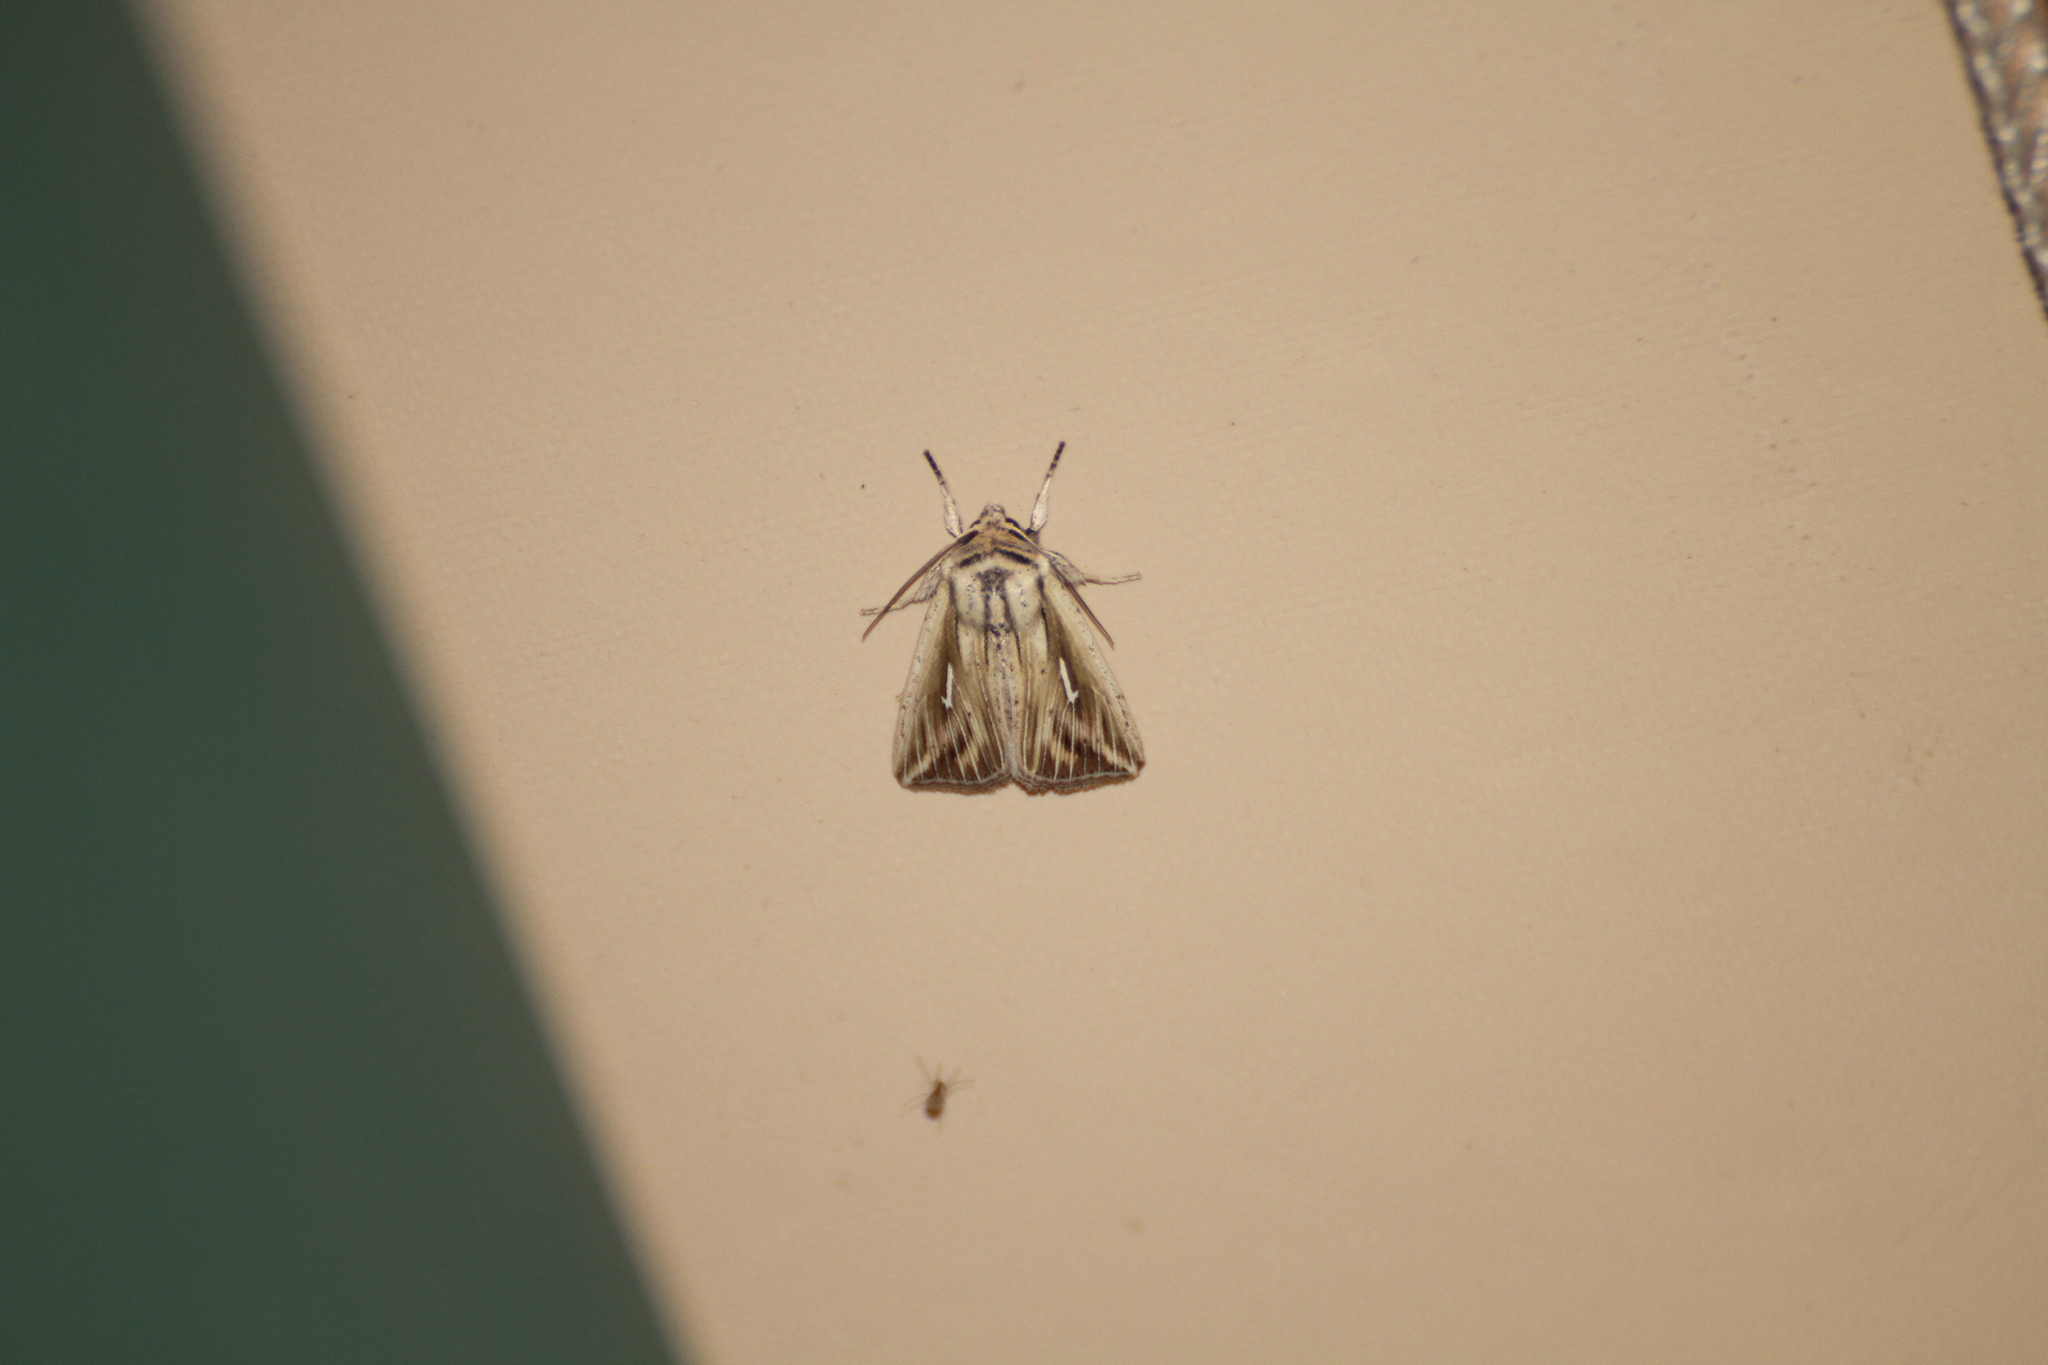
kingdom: Animalia
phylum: Arthropoda
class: Insecta
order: Lepidoptera
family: Noctuidae
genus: Mythimna
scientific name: Mythimna l-album
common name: L-album wainscot
